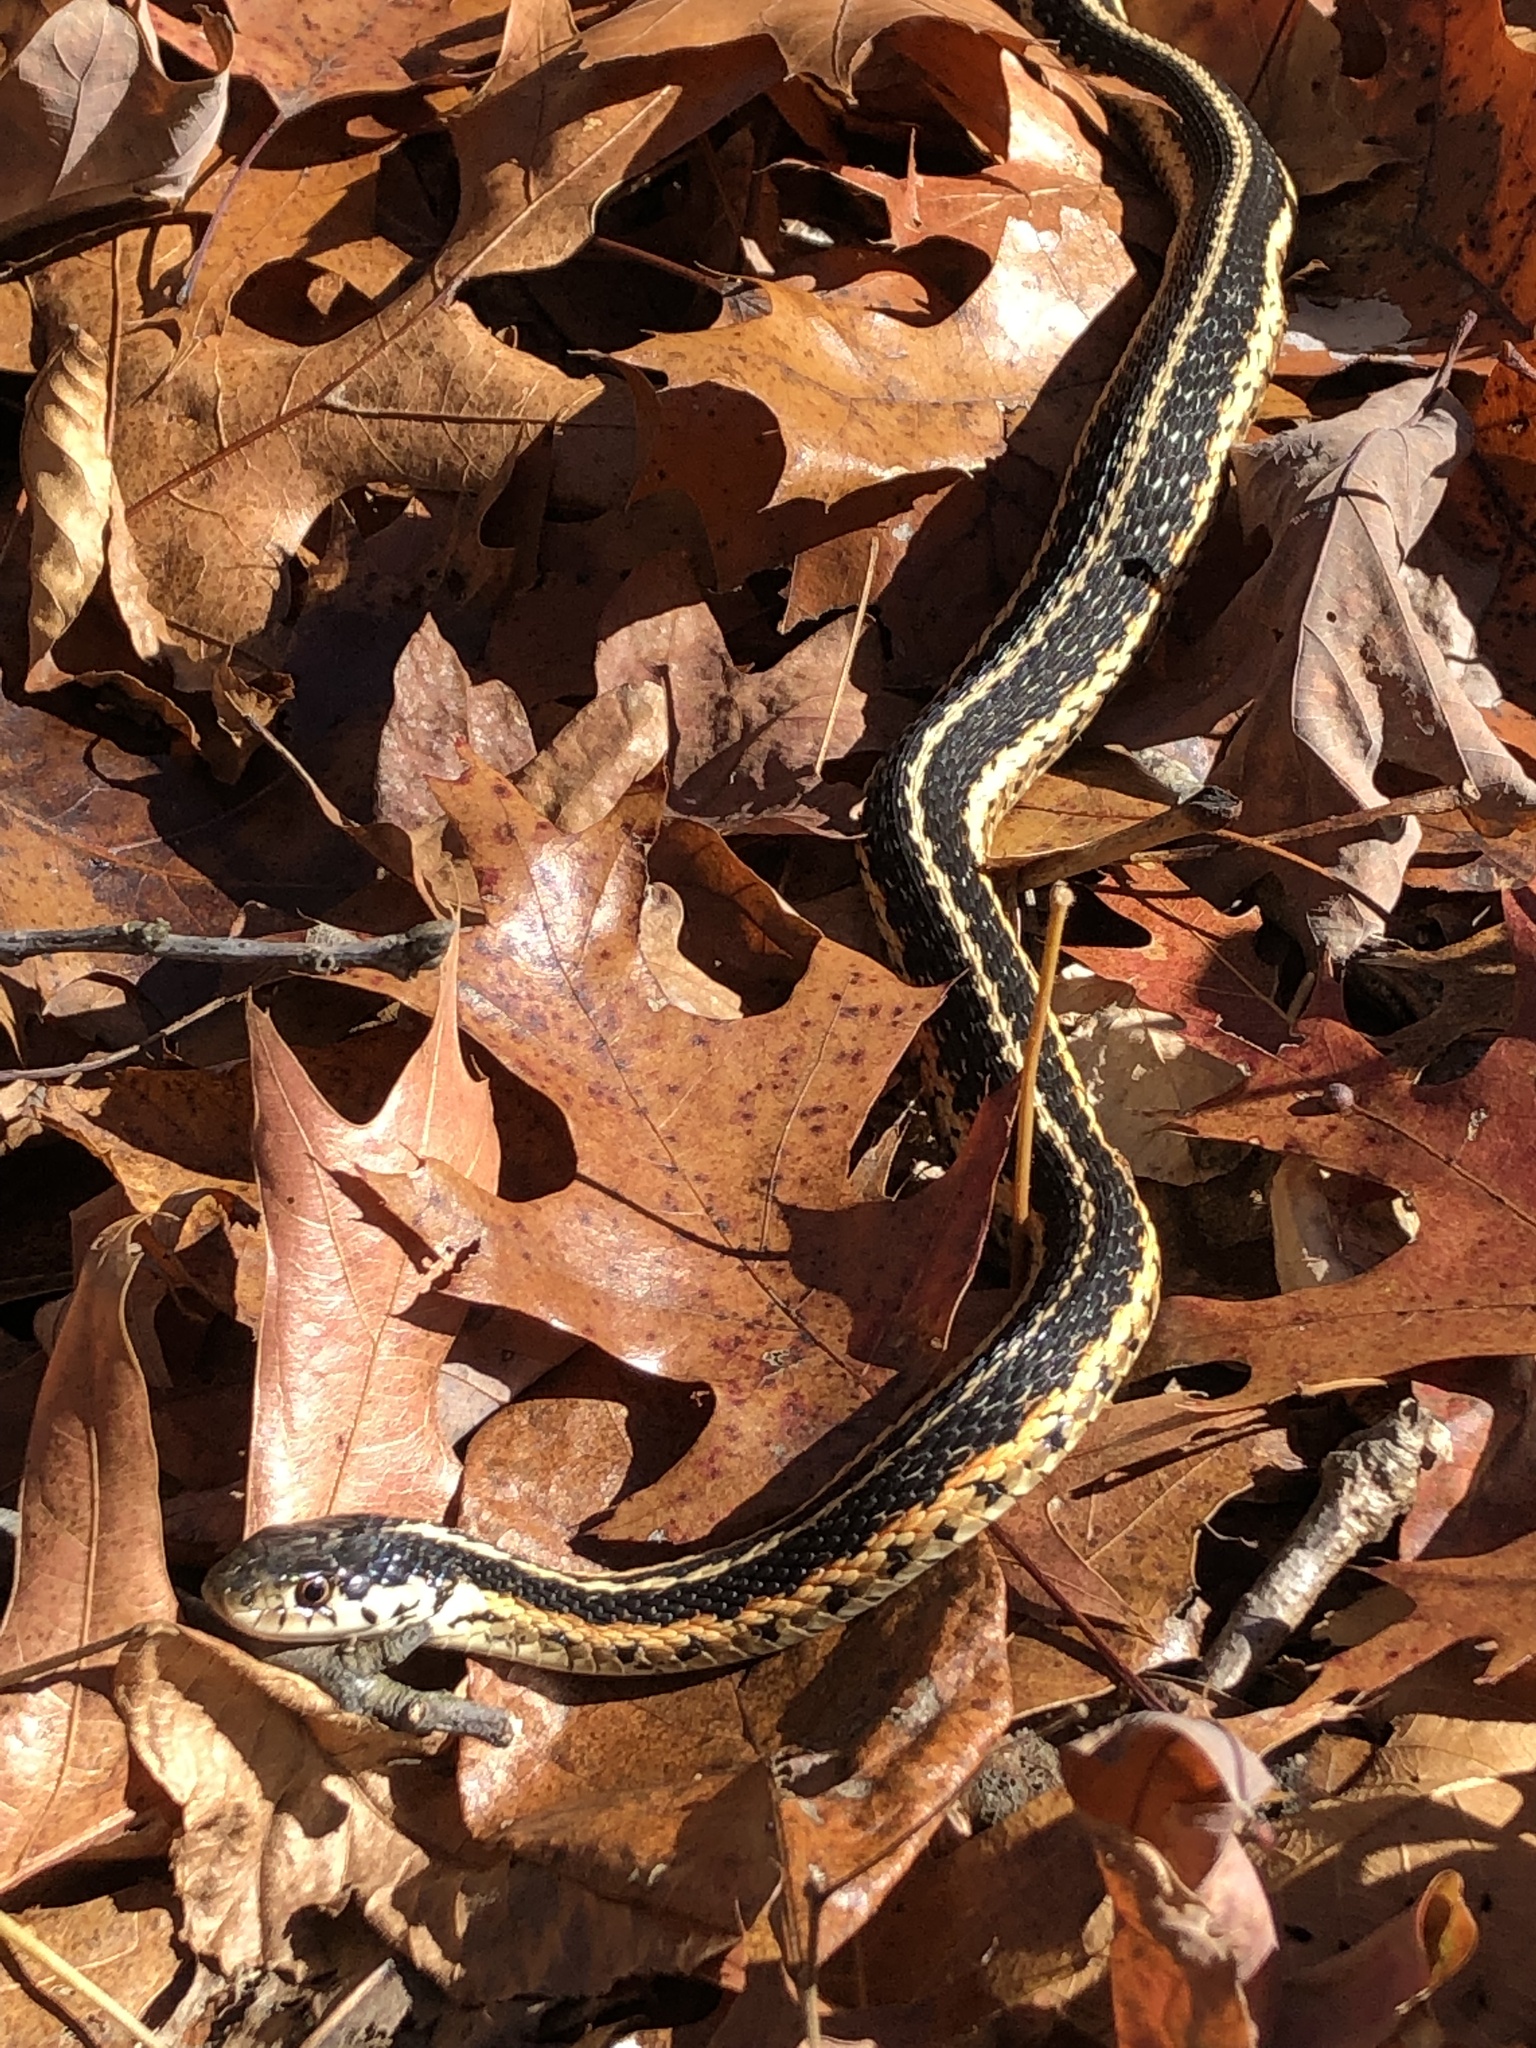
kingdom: Animalia
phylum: Chordata
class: Squamata
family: Colubridae
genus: Thamnophis
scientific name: Thamnophis sirtalis
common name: Common garter snake
